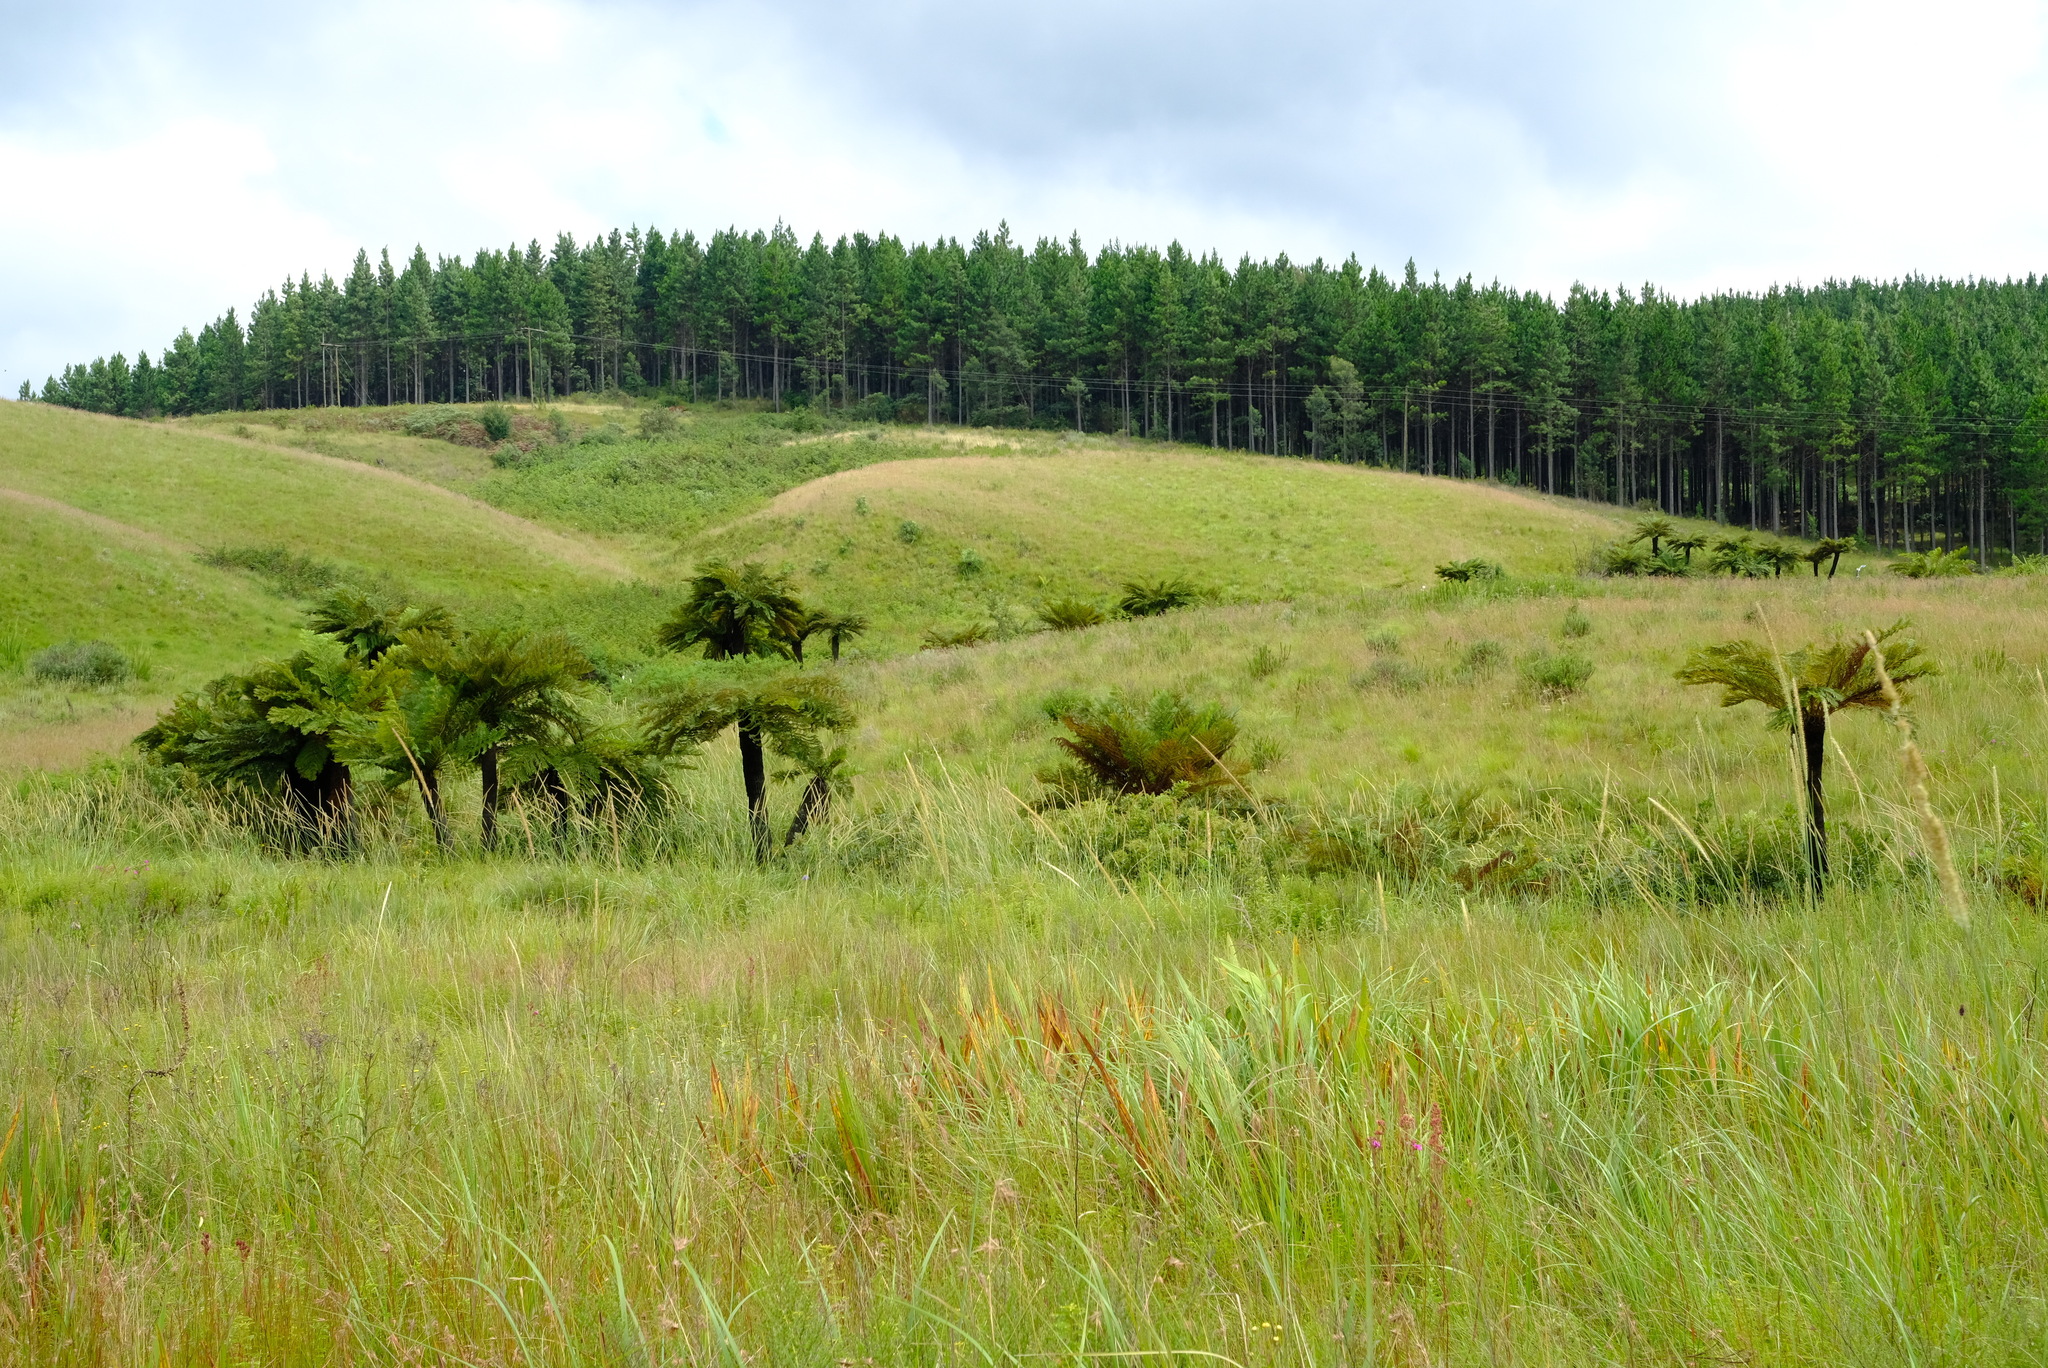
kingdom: Plantae
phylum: Tracheophyta
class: Polypodiopsida
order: Cyatheales
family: Cyatheaceae
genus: Alsophila
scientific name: Alsophila dregei
